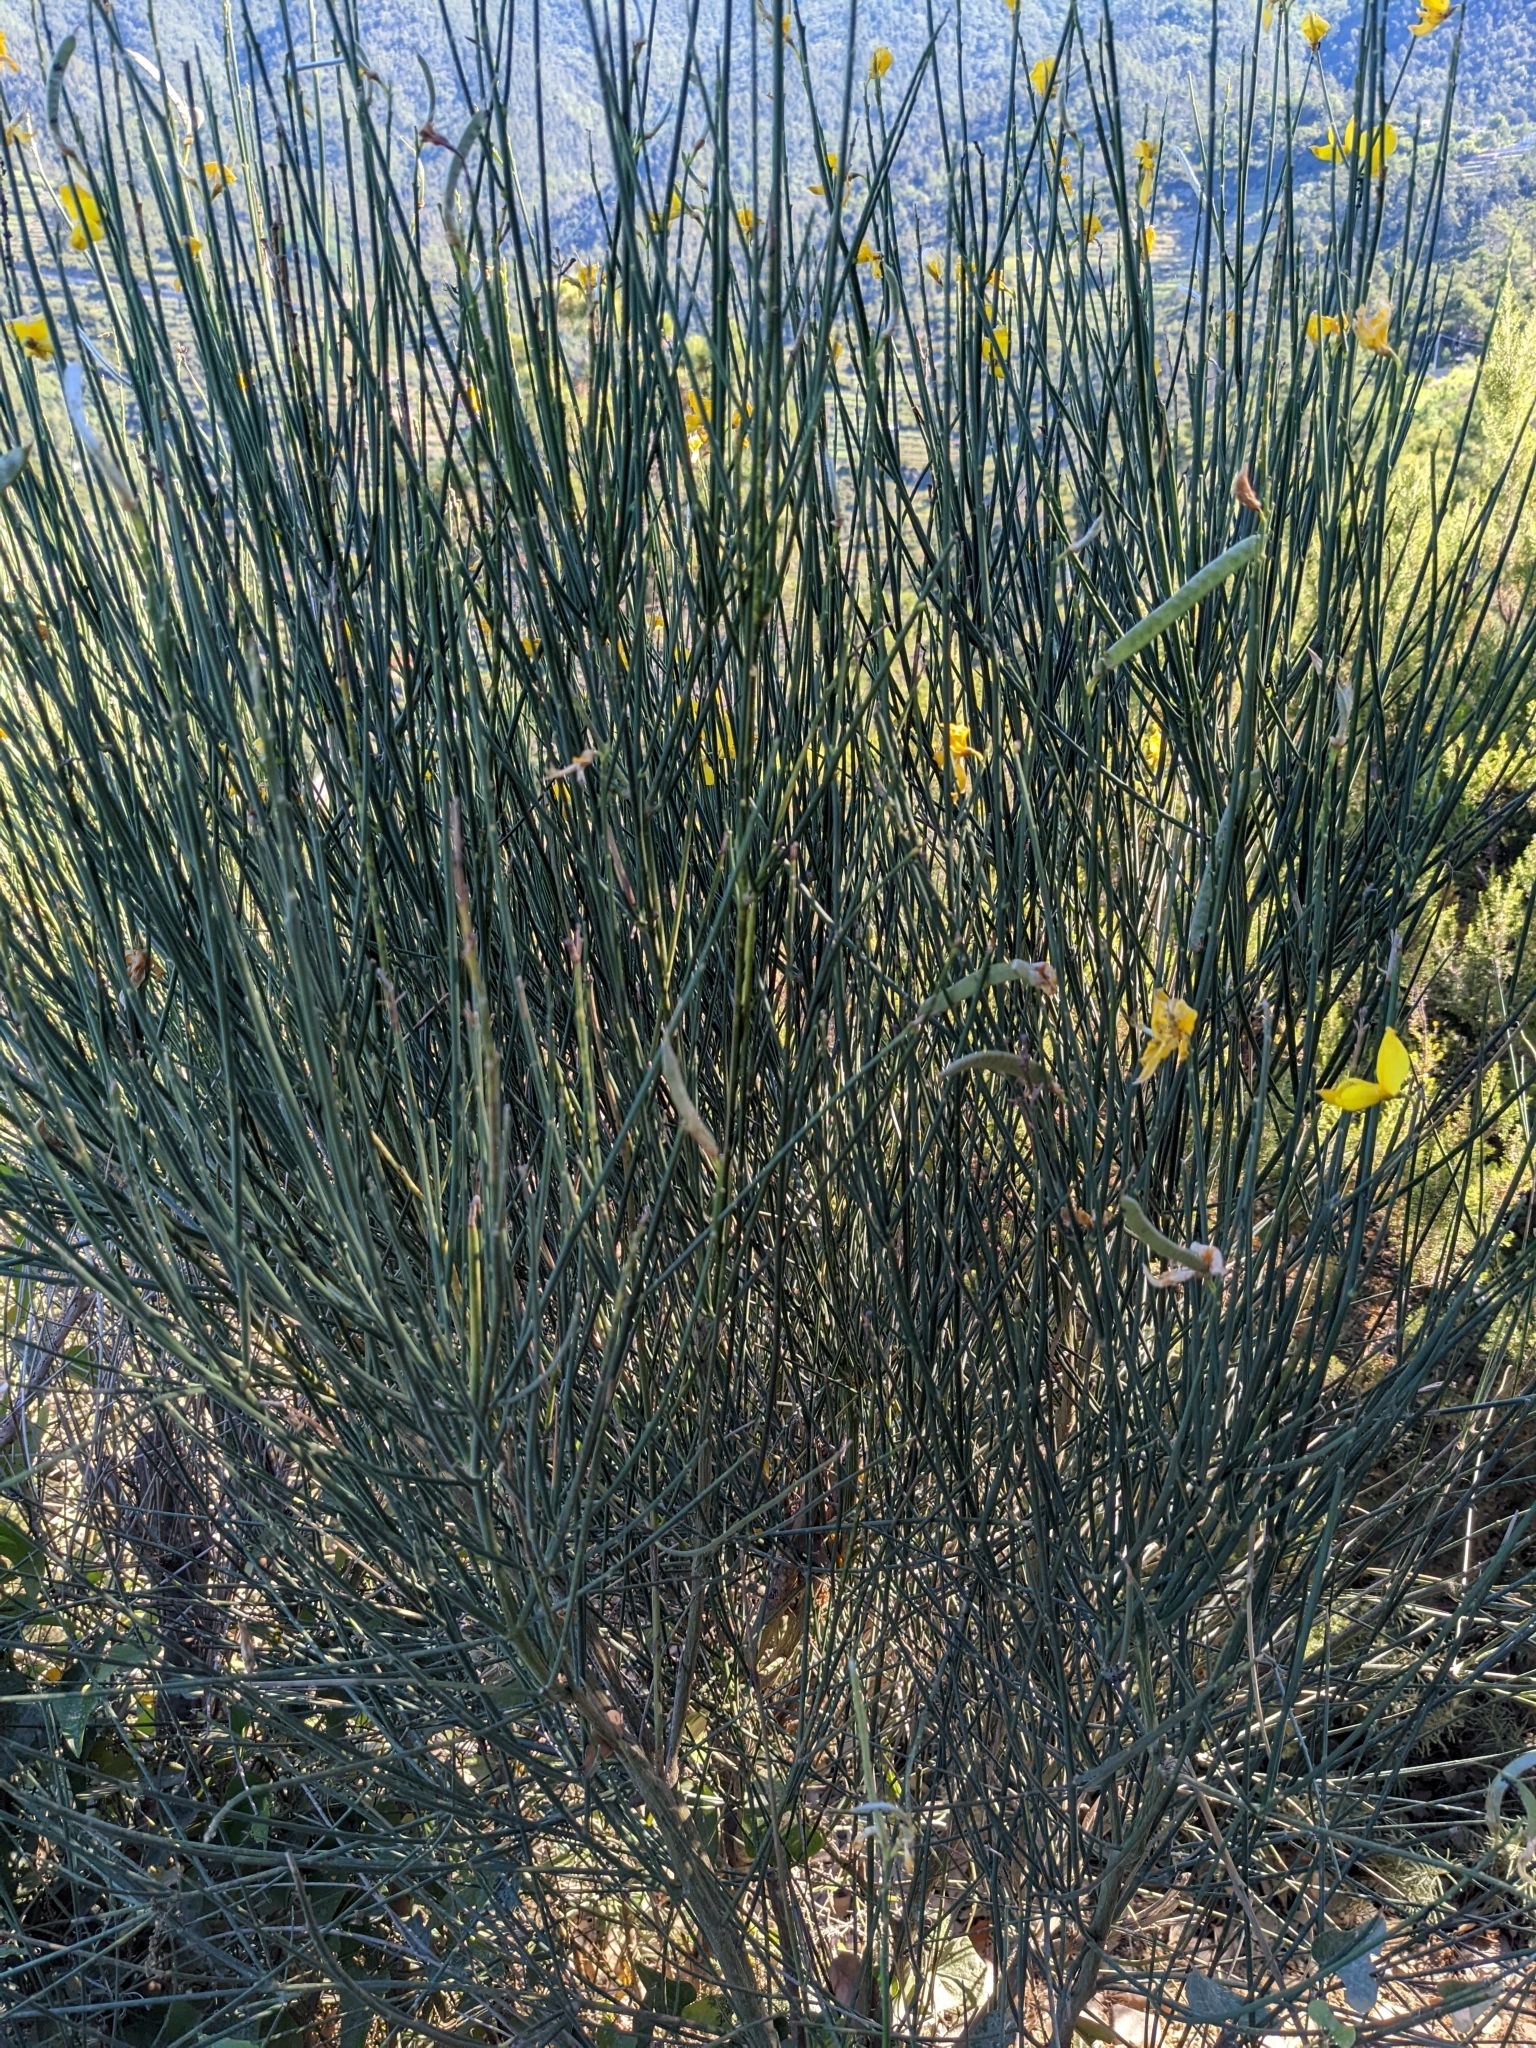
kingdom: Plantae
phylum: Tracheophyta
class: Magnoliopsida
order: Fabales
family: Fabaceae
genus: Spartium
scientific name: Spartium junceum
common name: Spanish broom
